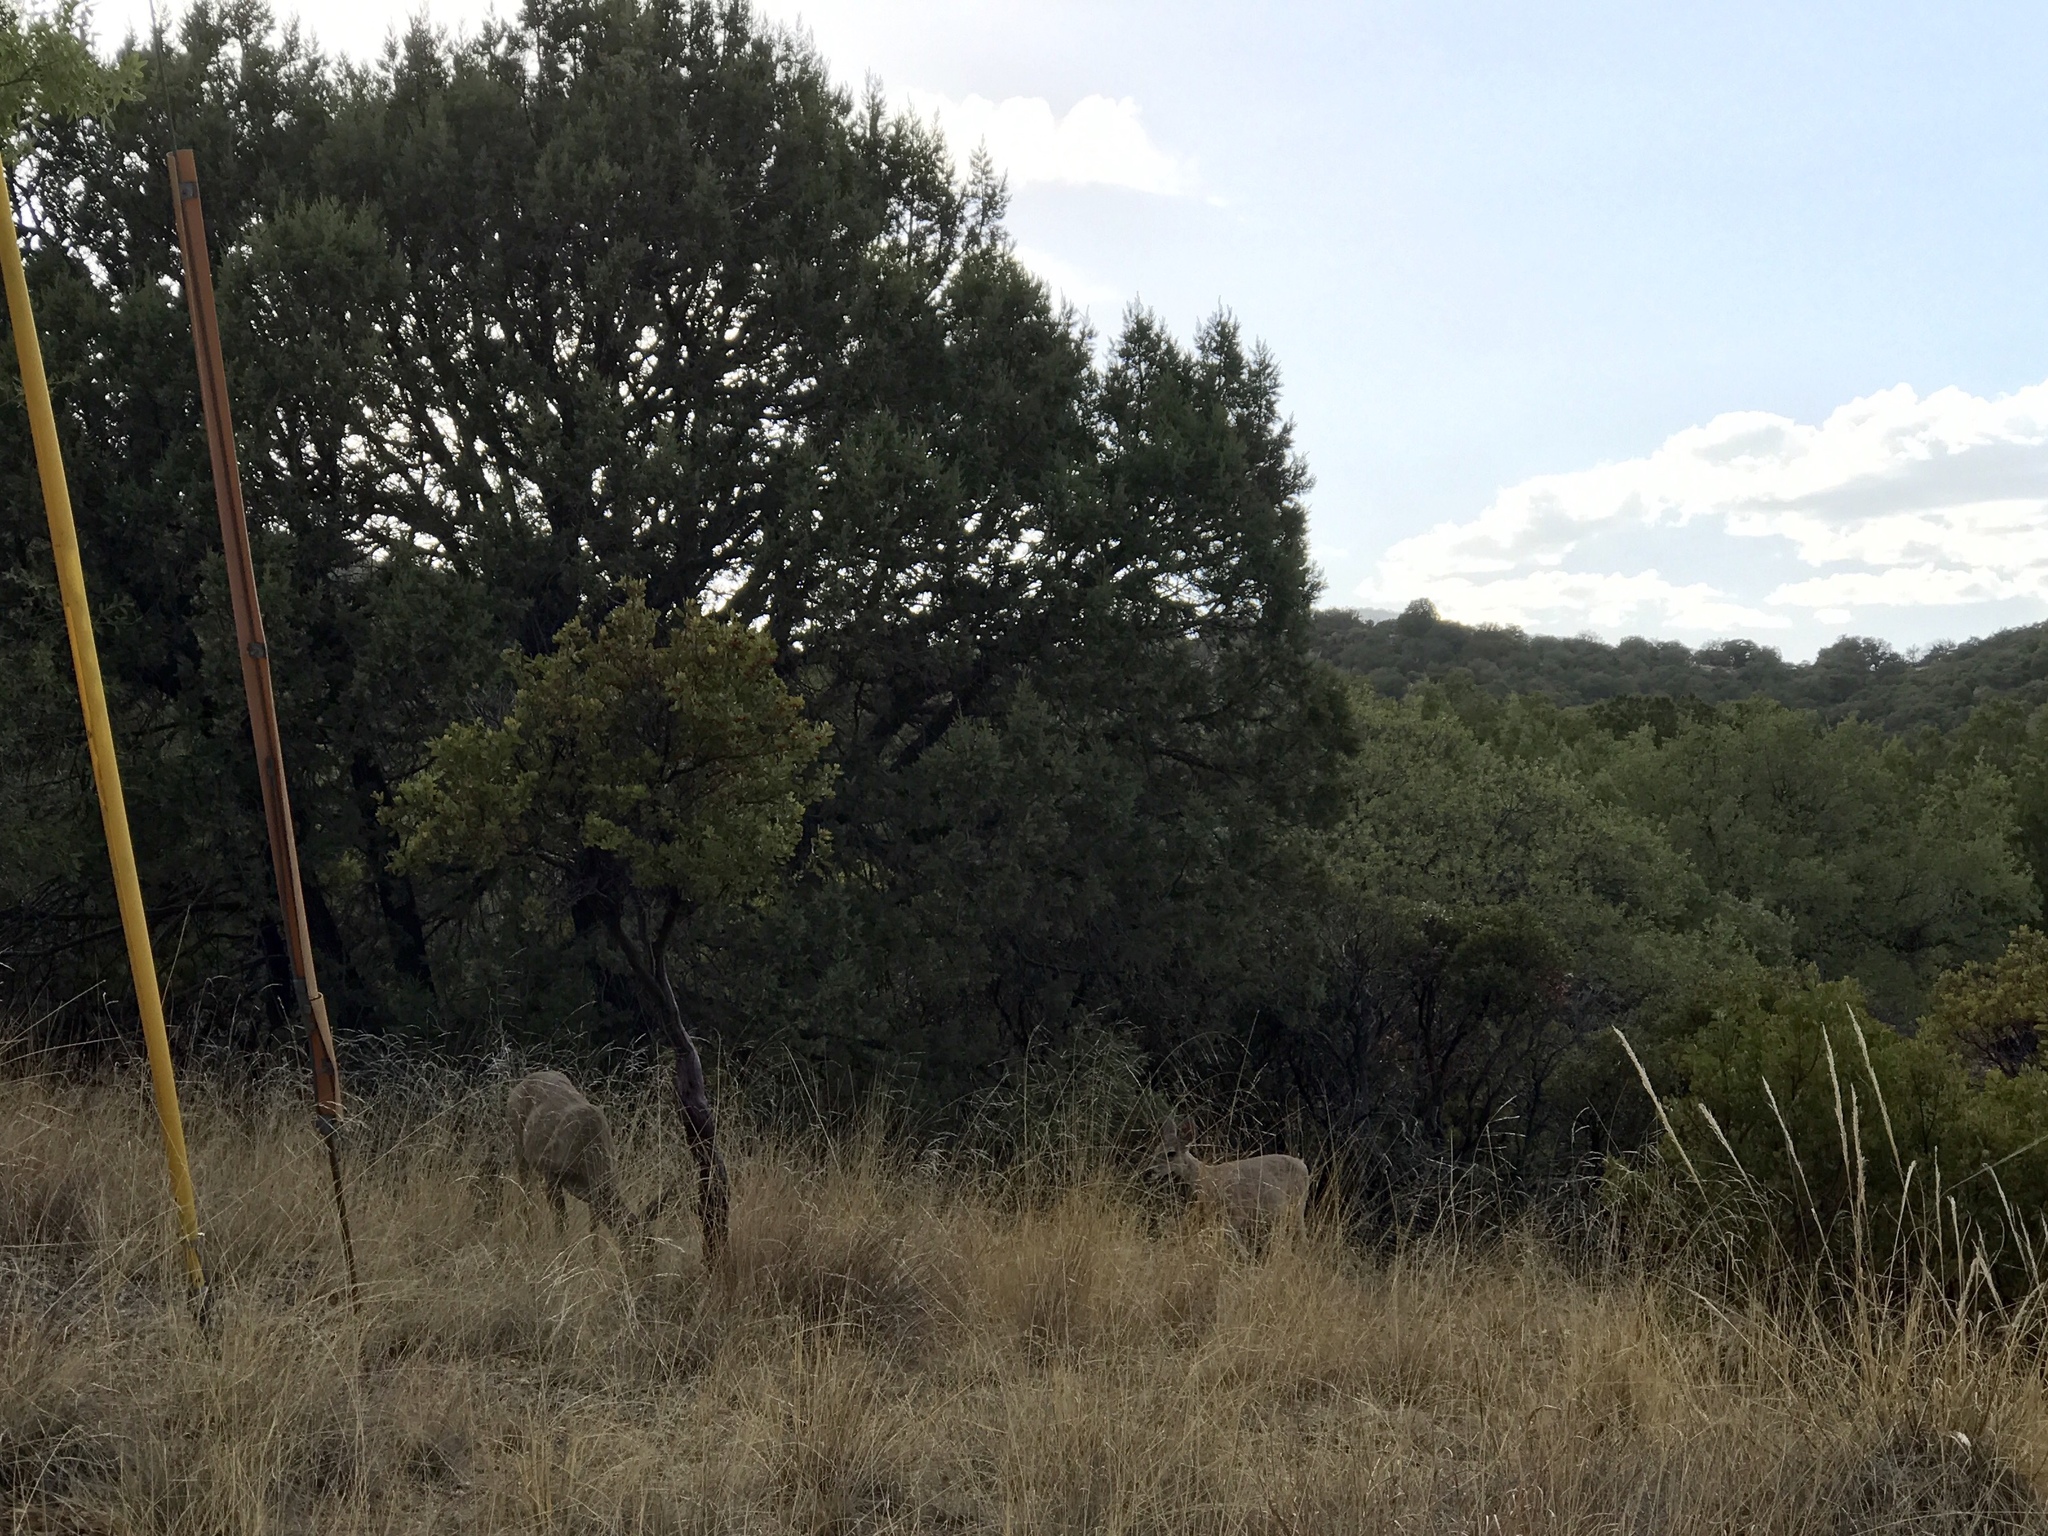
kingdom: Animalia
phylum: Chordata
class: Mammalia
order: Artiodactyla
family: Cervidae
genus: Odocoileus
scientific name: Odocoileus virginianus
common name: White-tailed deer
